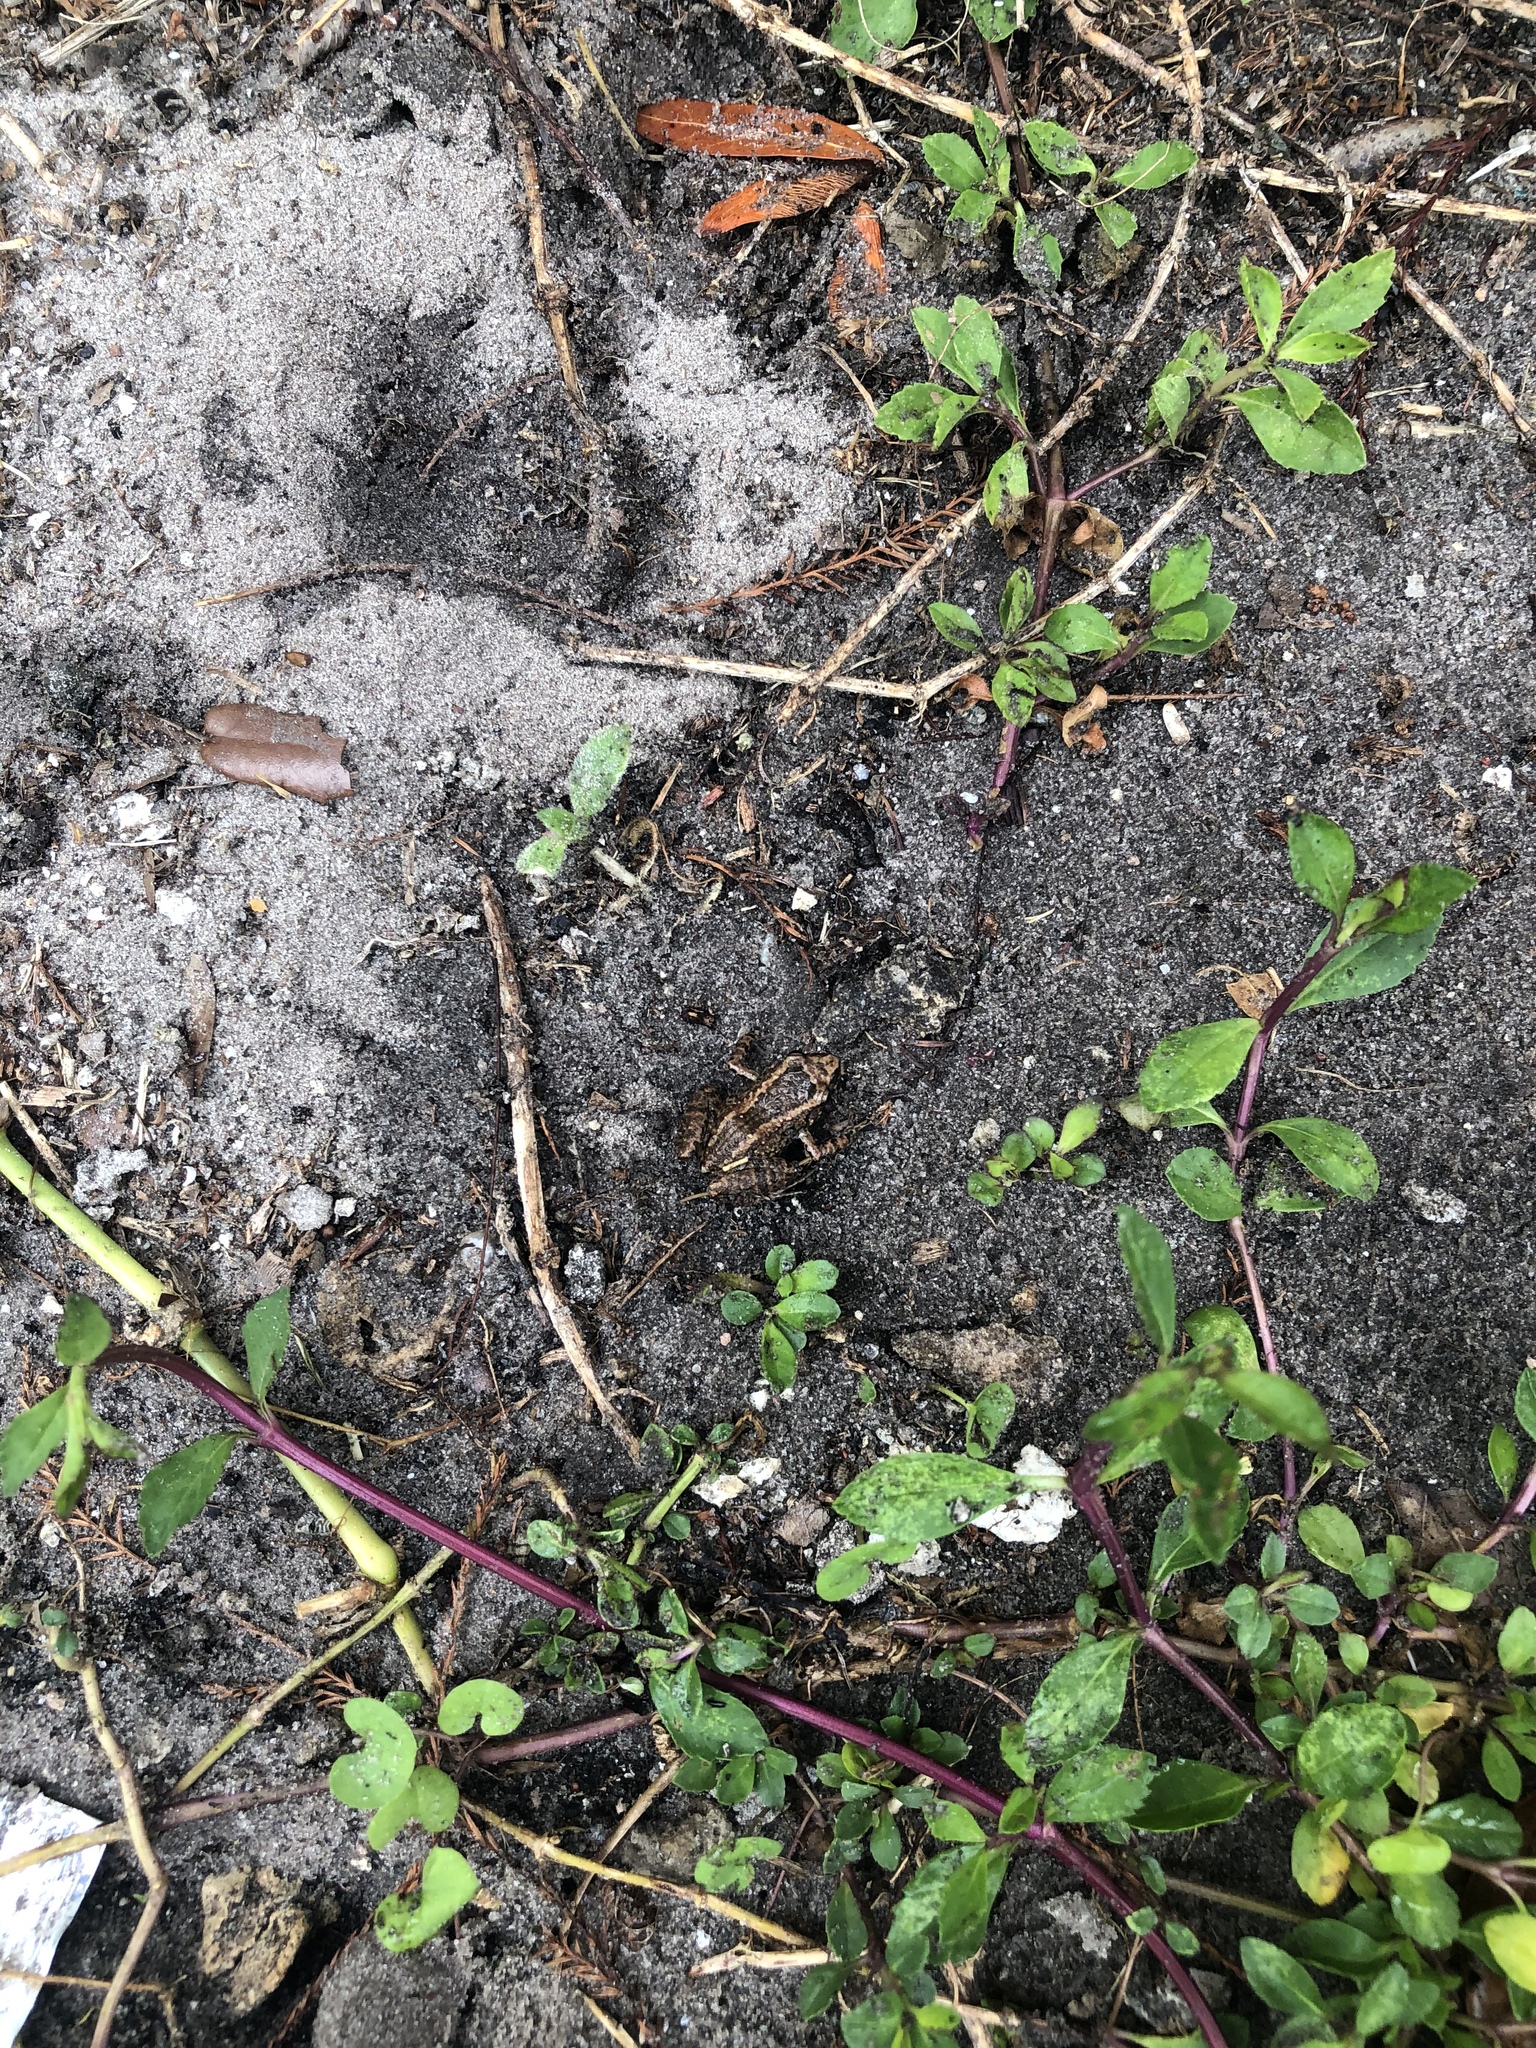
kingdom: Animalia
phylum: Chordata
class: Amphibia
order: Anura
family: Eleutherodactylidae
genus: Eleutherodactylus
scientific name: Eleutherodactylus planirostris
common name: Greenhouse frog
